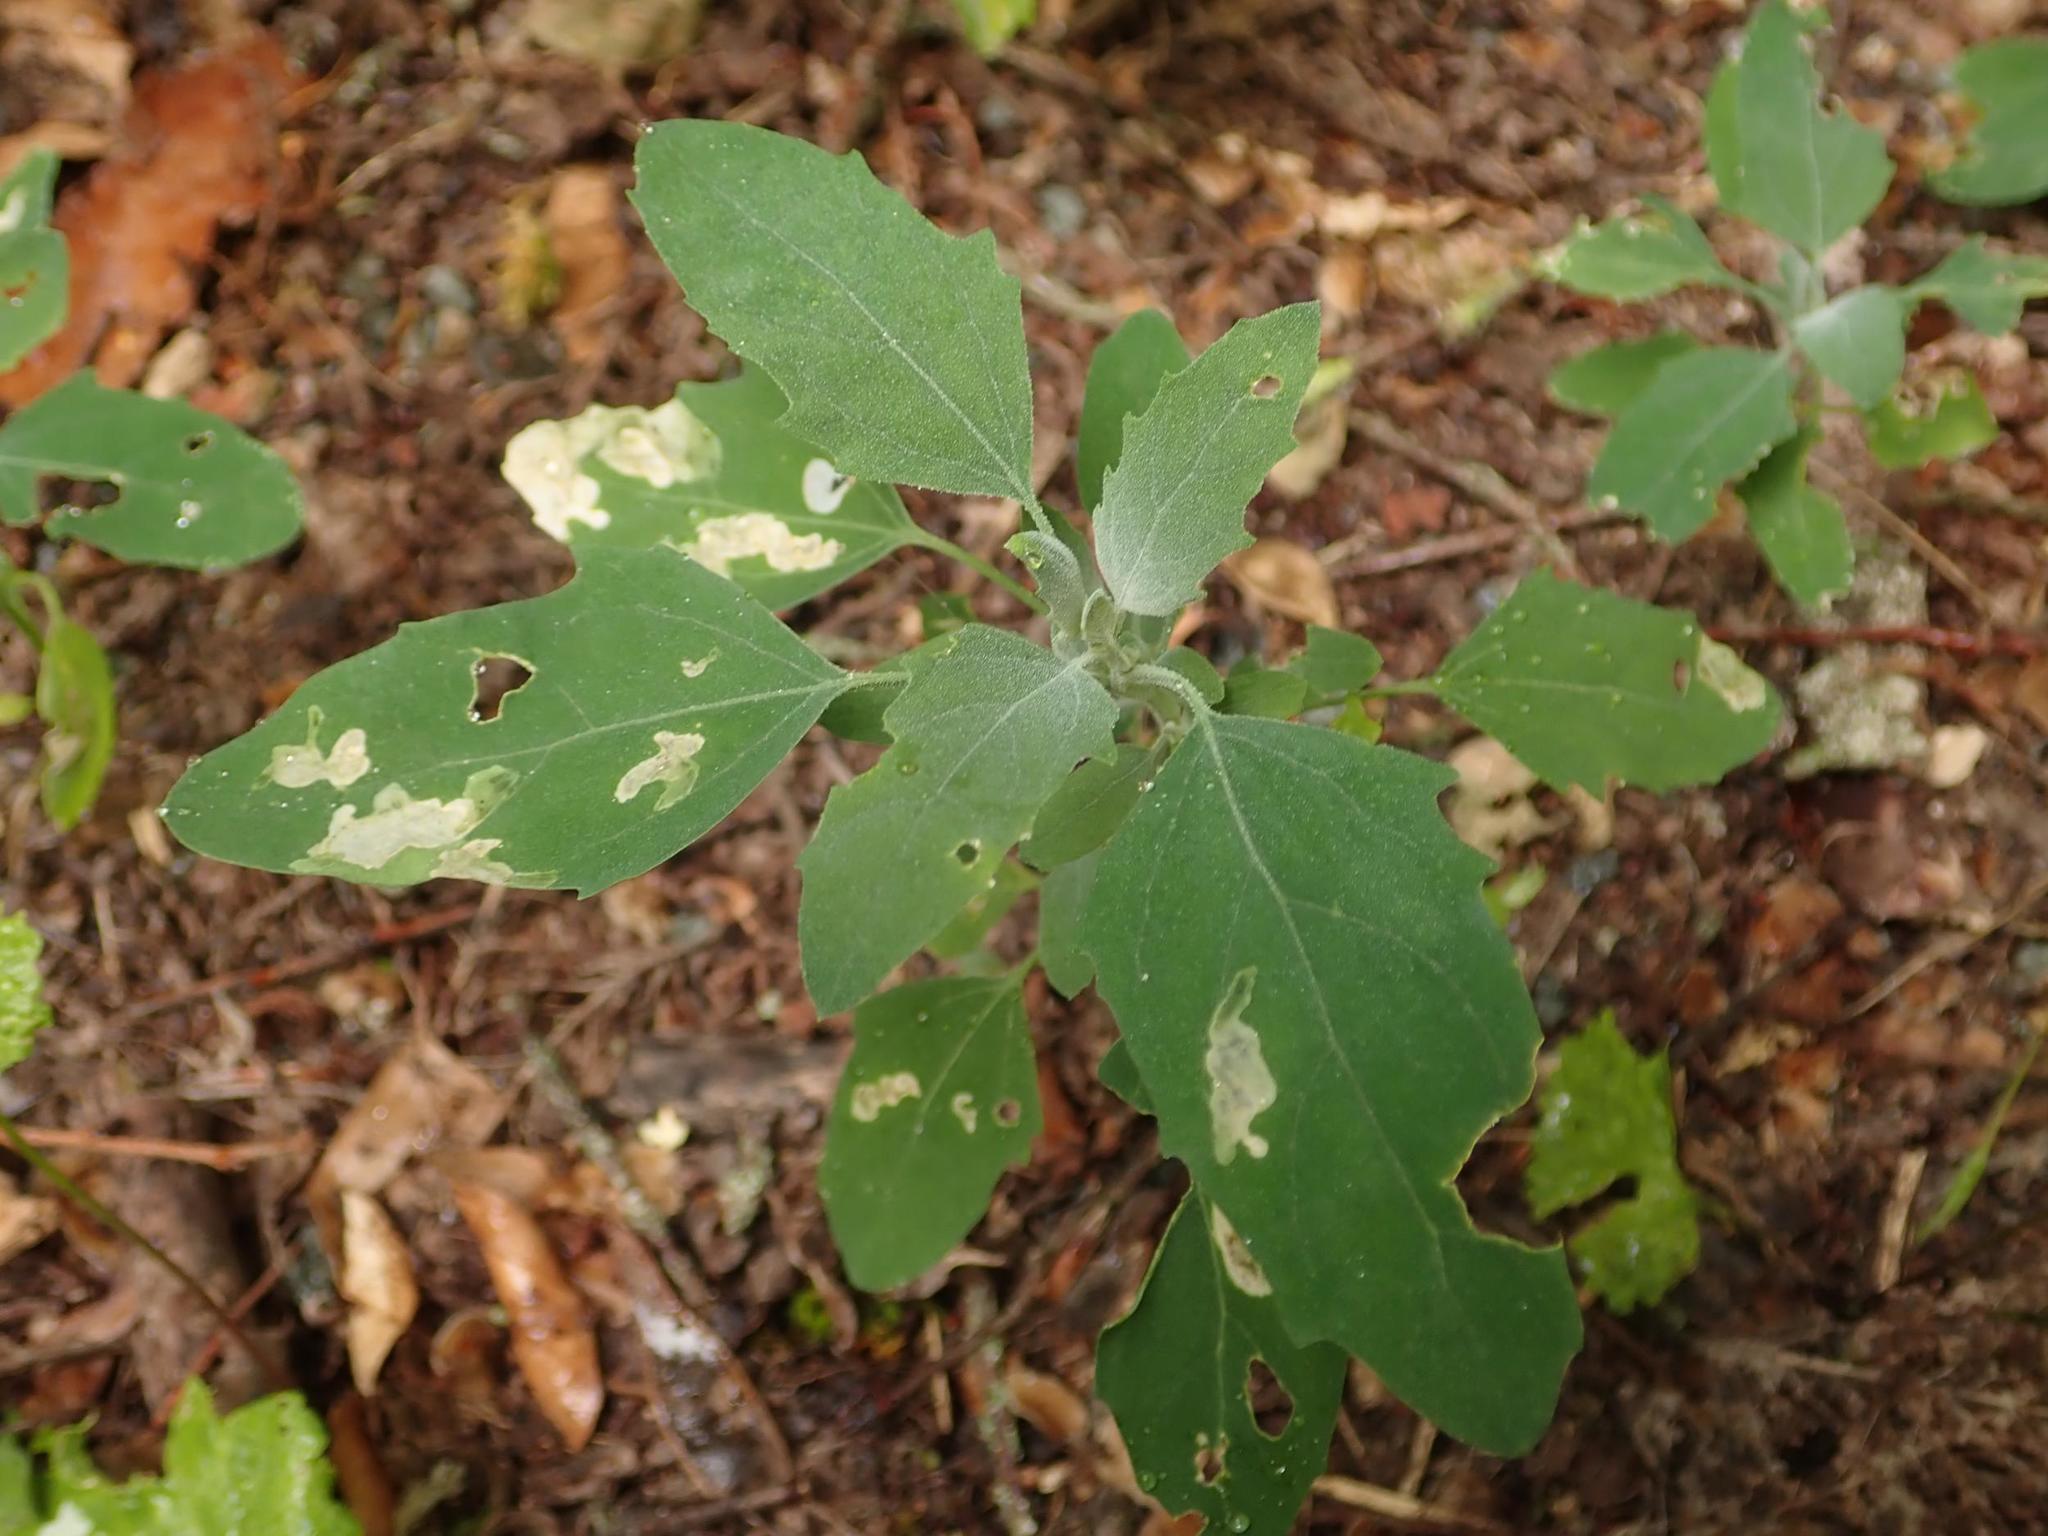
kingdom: Plantae
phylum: Tracheophyta
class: Magnoliopsida
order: Caryophyllales
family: Amaranthaceae
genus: Chenopodium
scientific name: Chenopodium album
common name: Fat-hen
